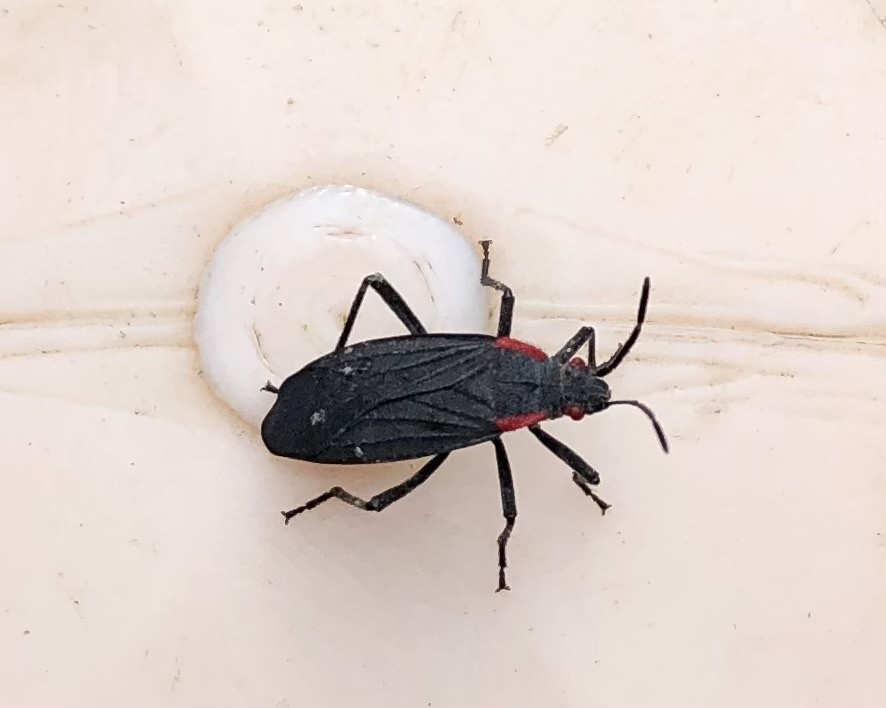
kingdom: Animalia
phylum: Arthropoda
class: Insecta
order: Hemiptera
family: Rhopalidae
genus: Jadera
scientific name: Jadera haematoloma
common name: Red-shouldered bug
